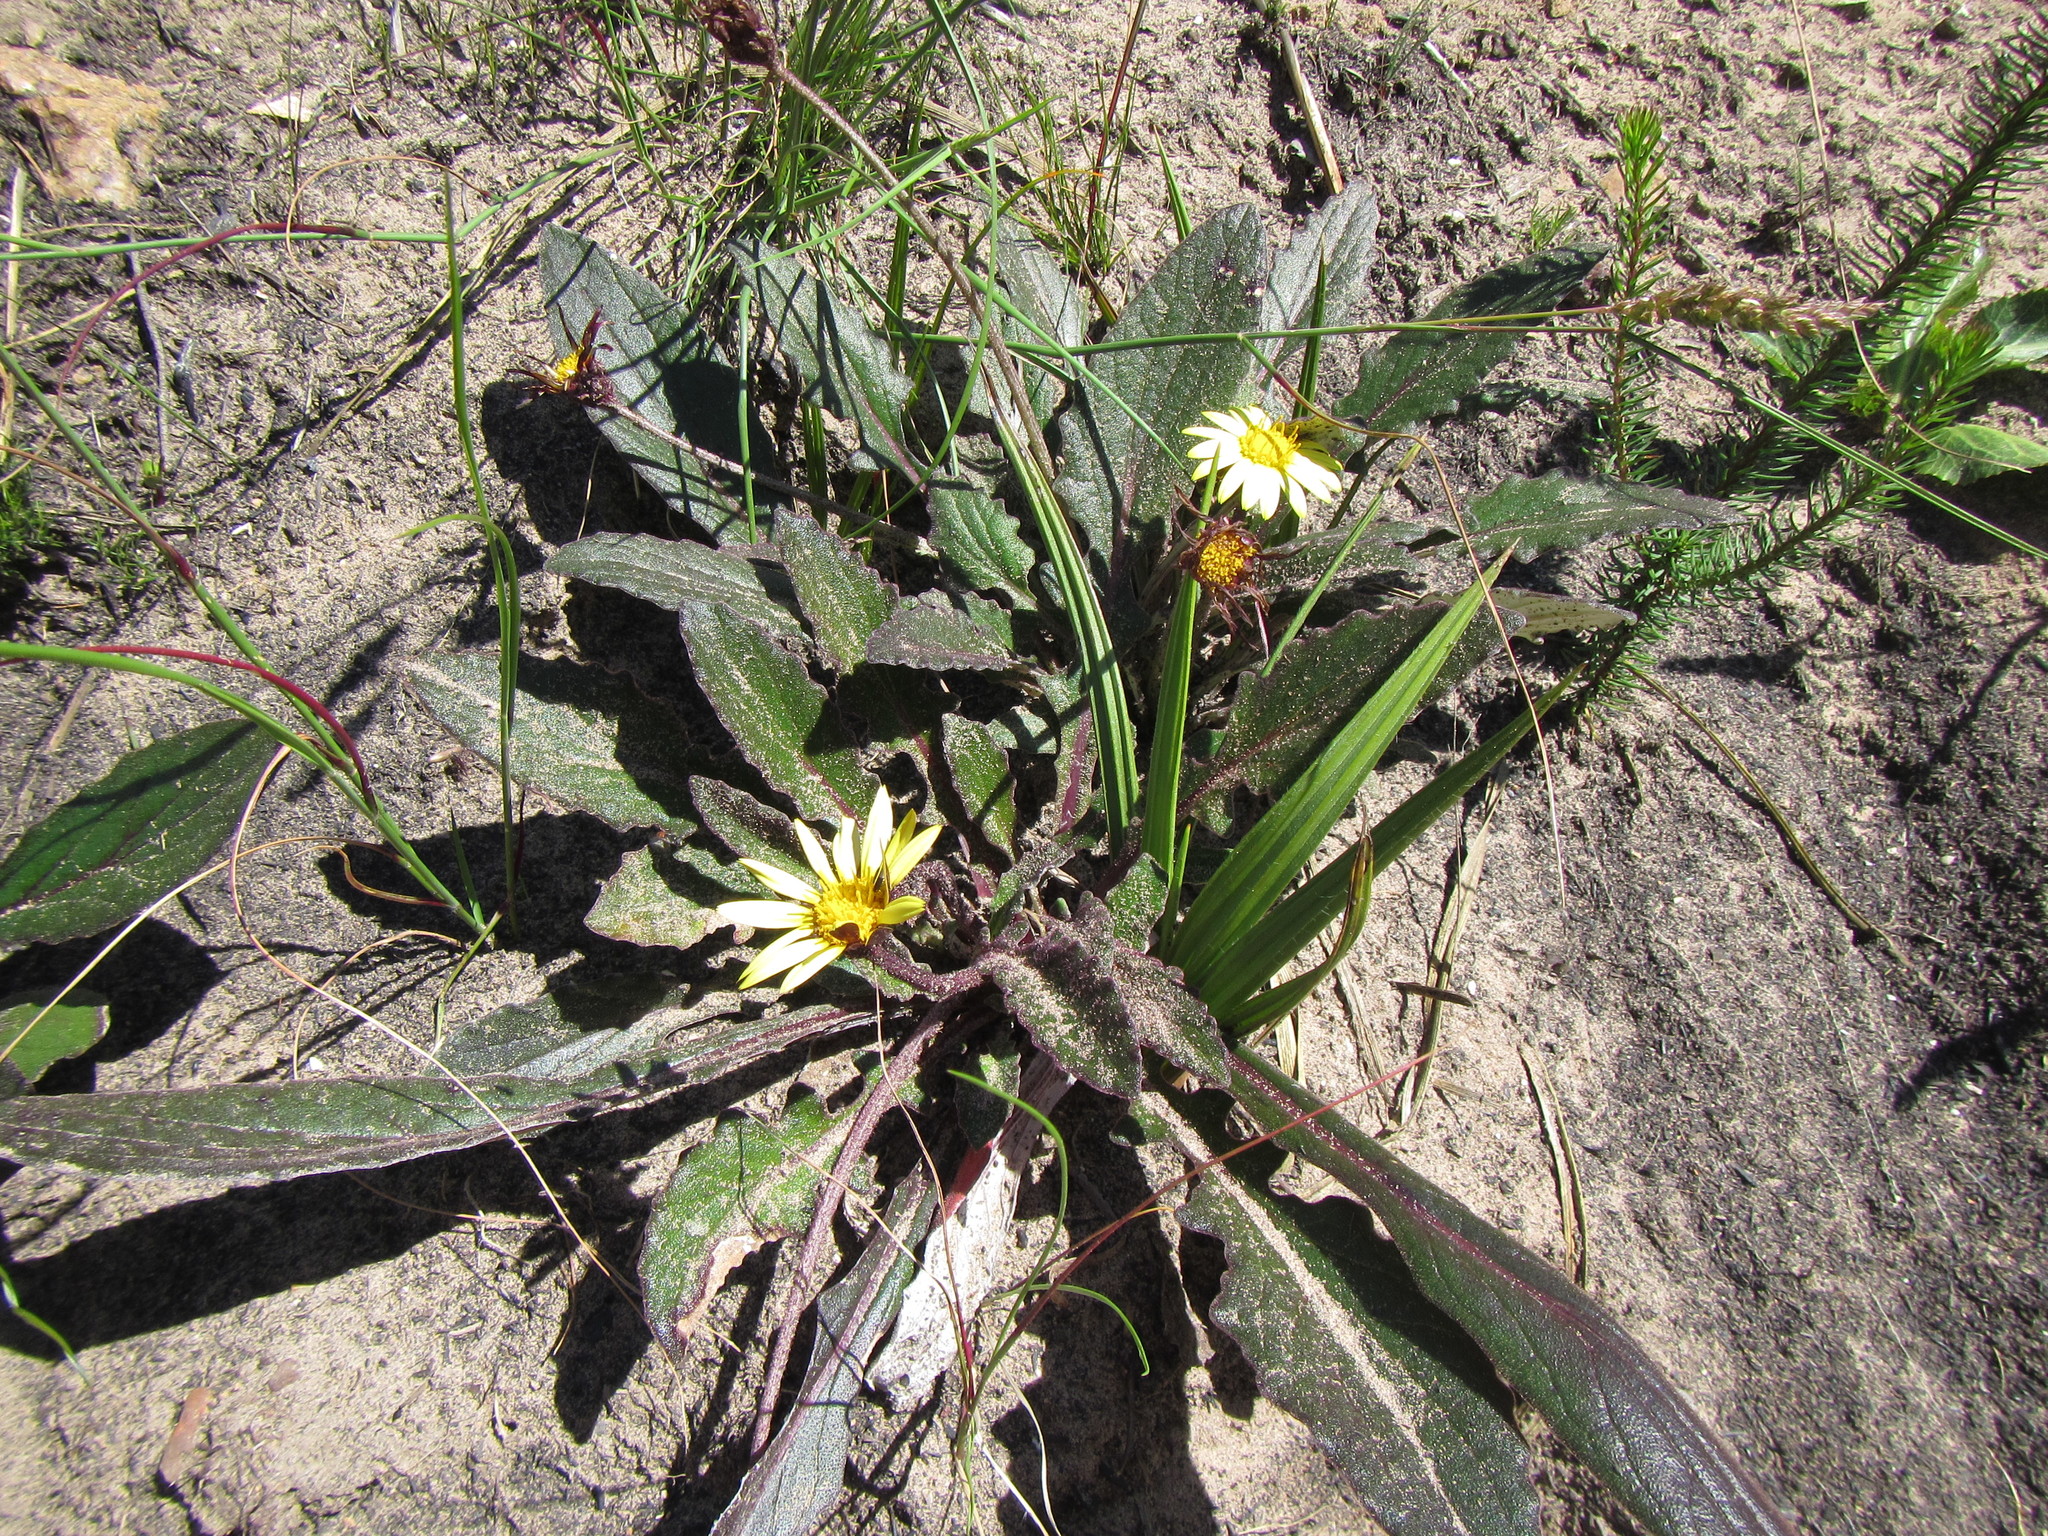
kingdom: Plantae
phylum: Tracheophyta
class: Magnoliopsida
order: Asterales
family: Asteraceae
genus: Haplocarpha
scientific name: Haplocarpha lanata
